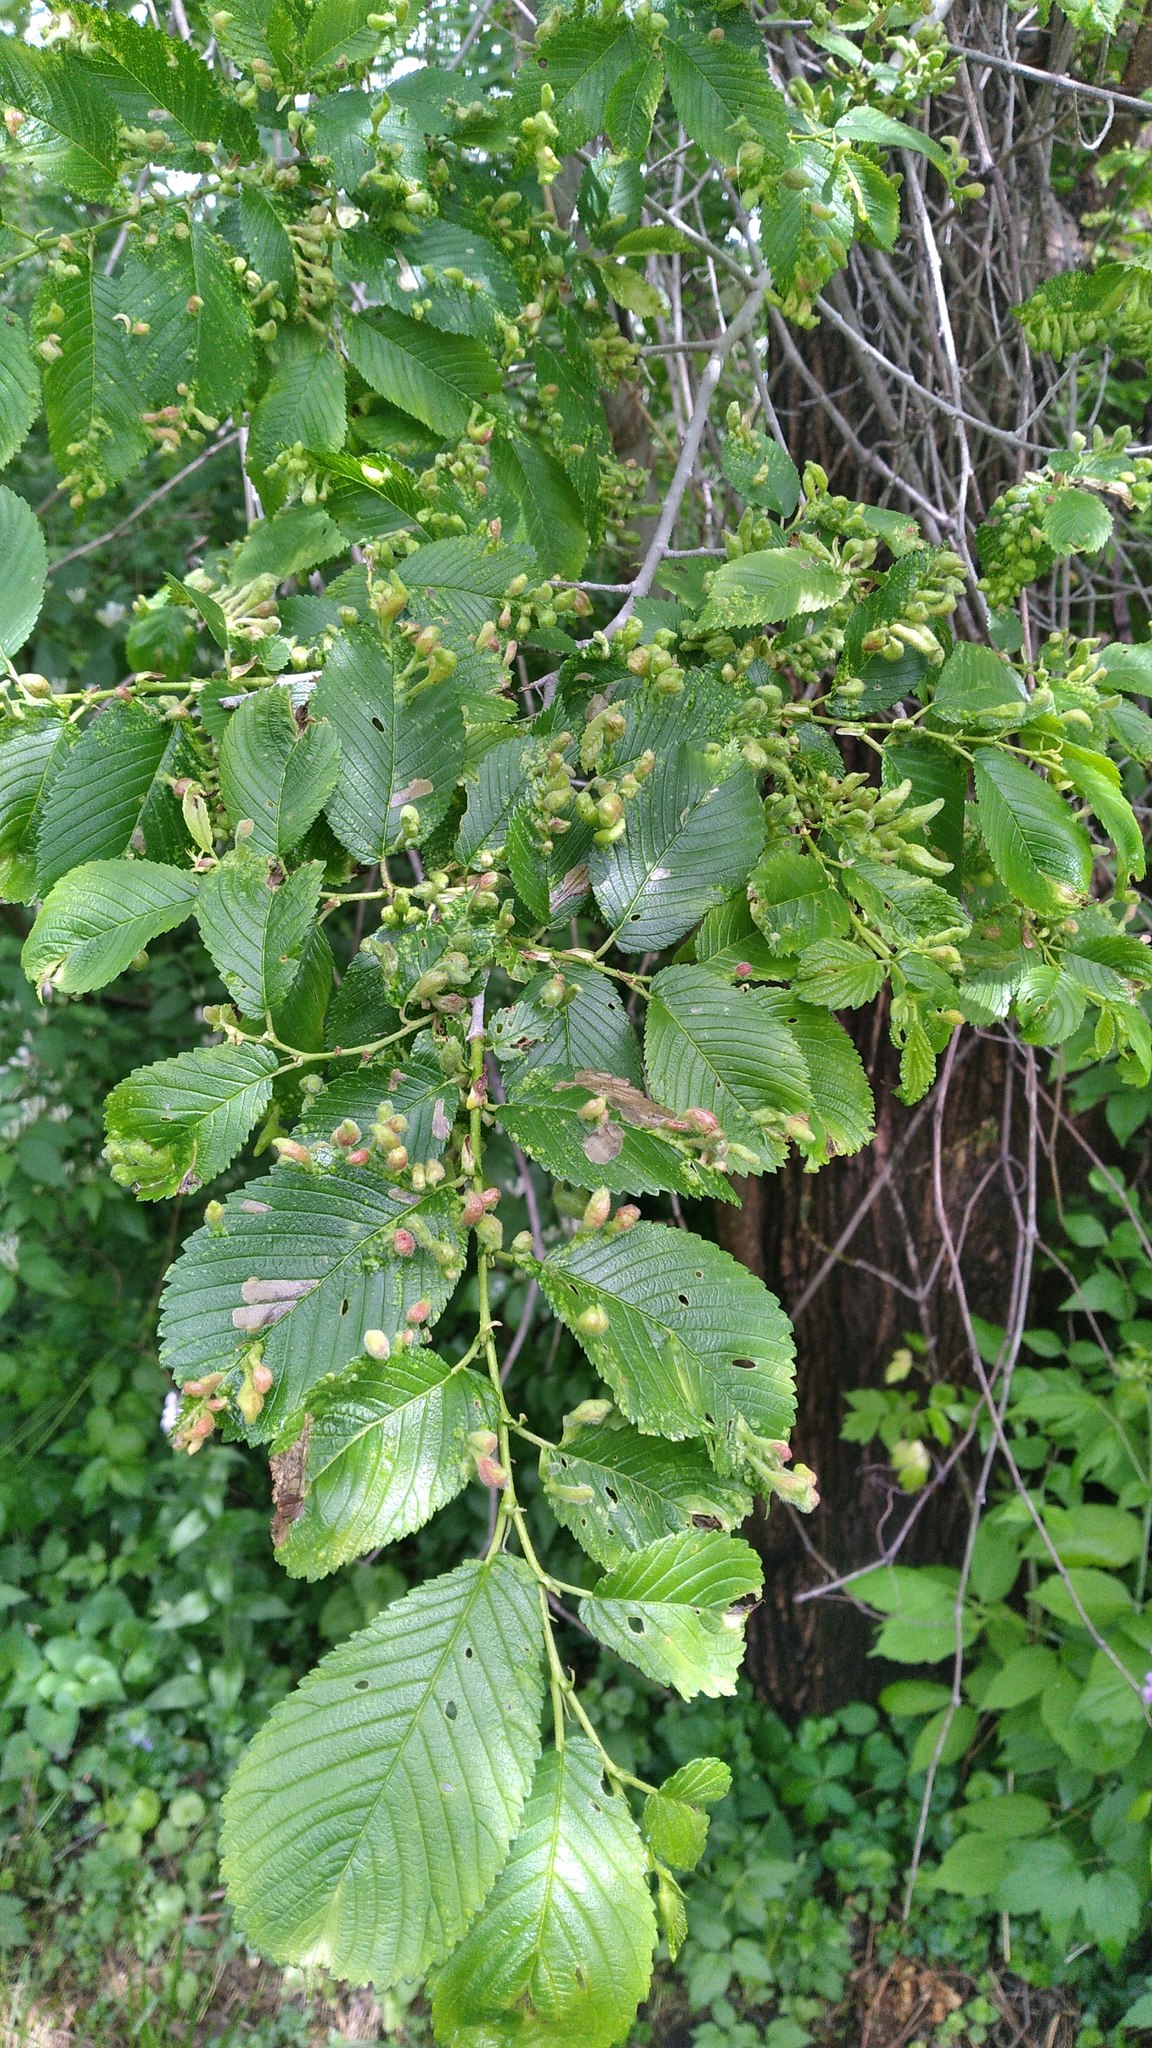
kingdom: Animalia
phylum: Arthropoda
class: Insecta
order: Hemiptera
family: Aphididae
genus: Tetraneura
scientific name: Tetraneura nigriabdominalis
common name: Aphid
